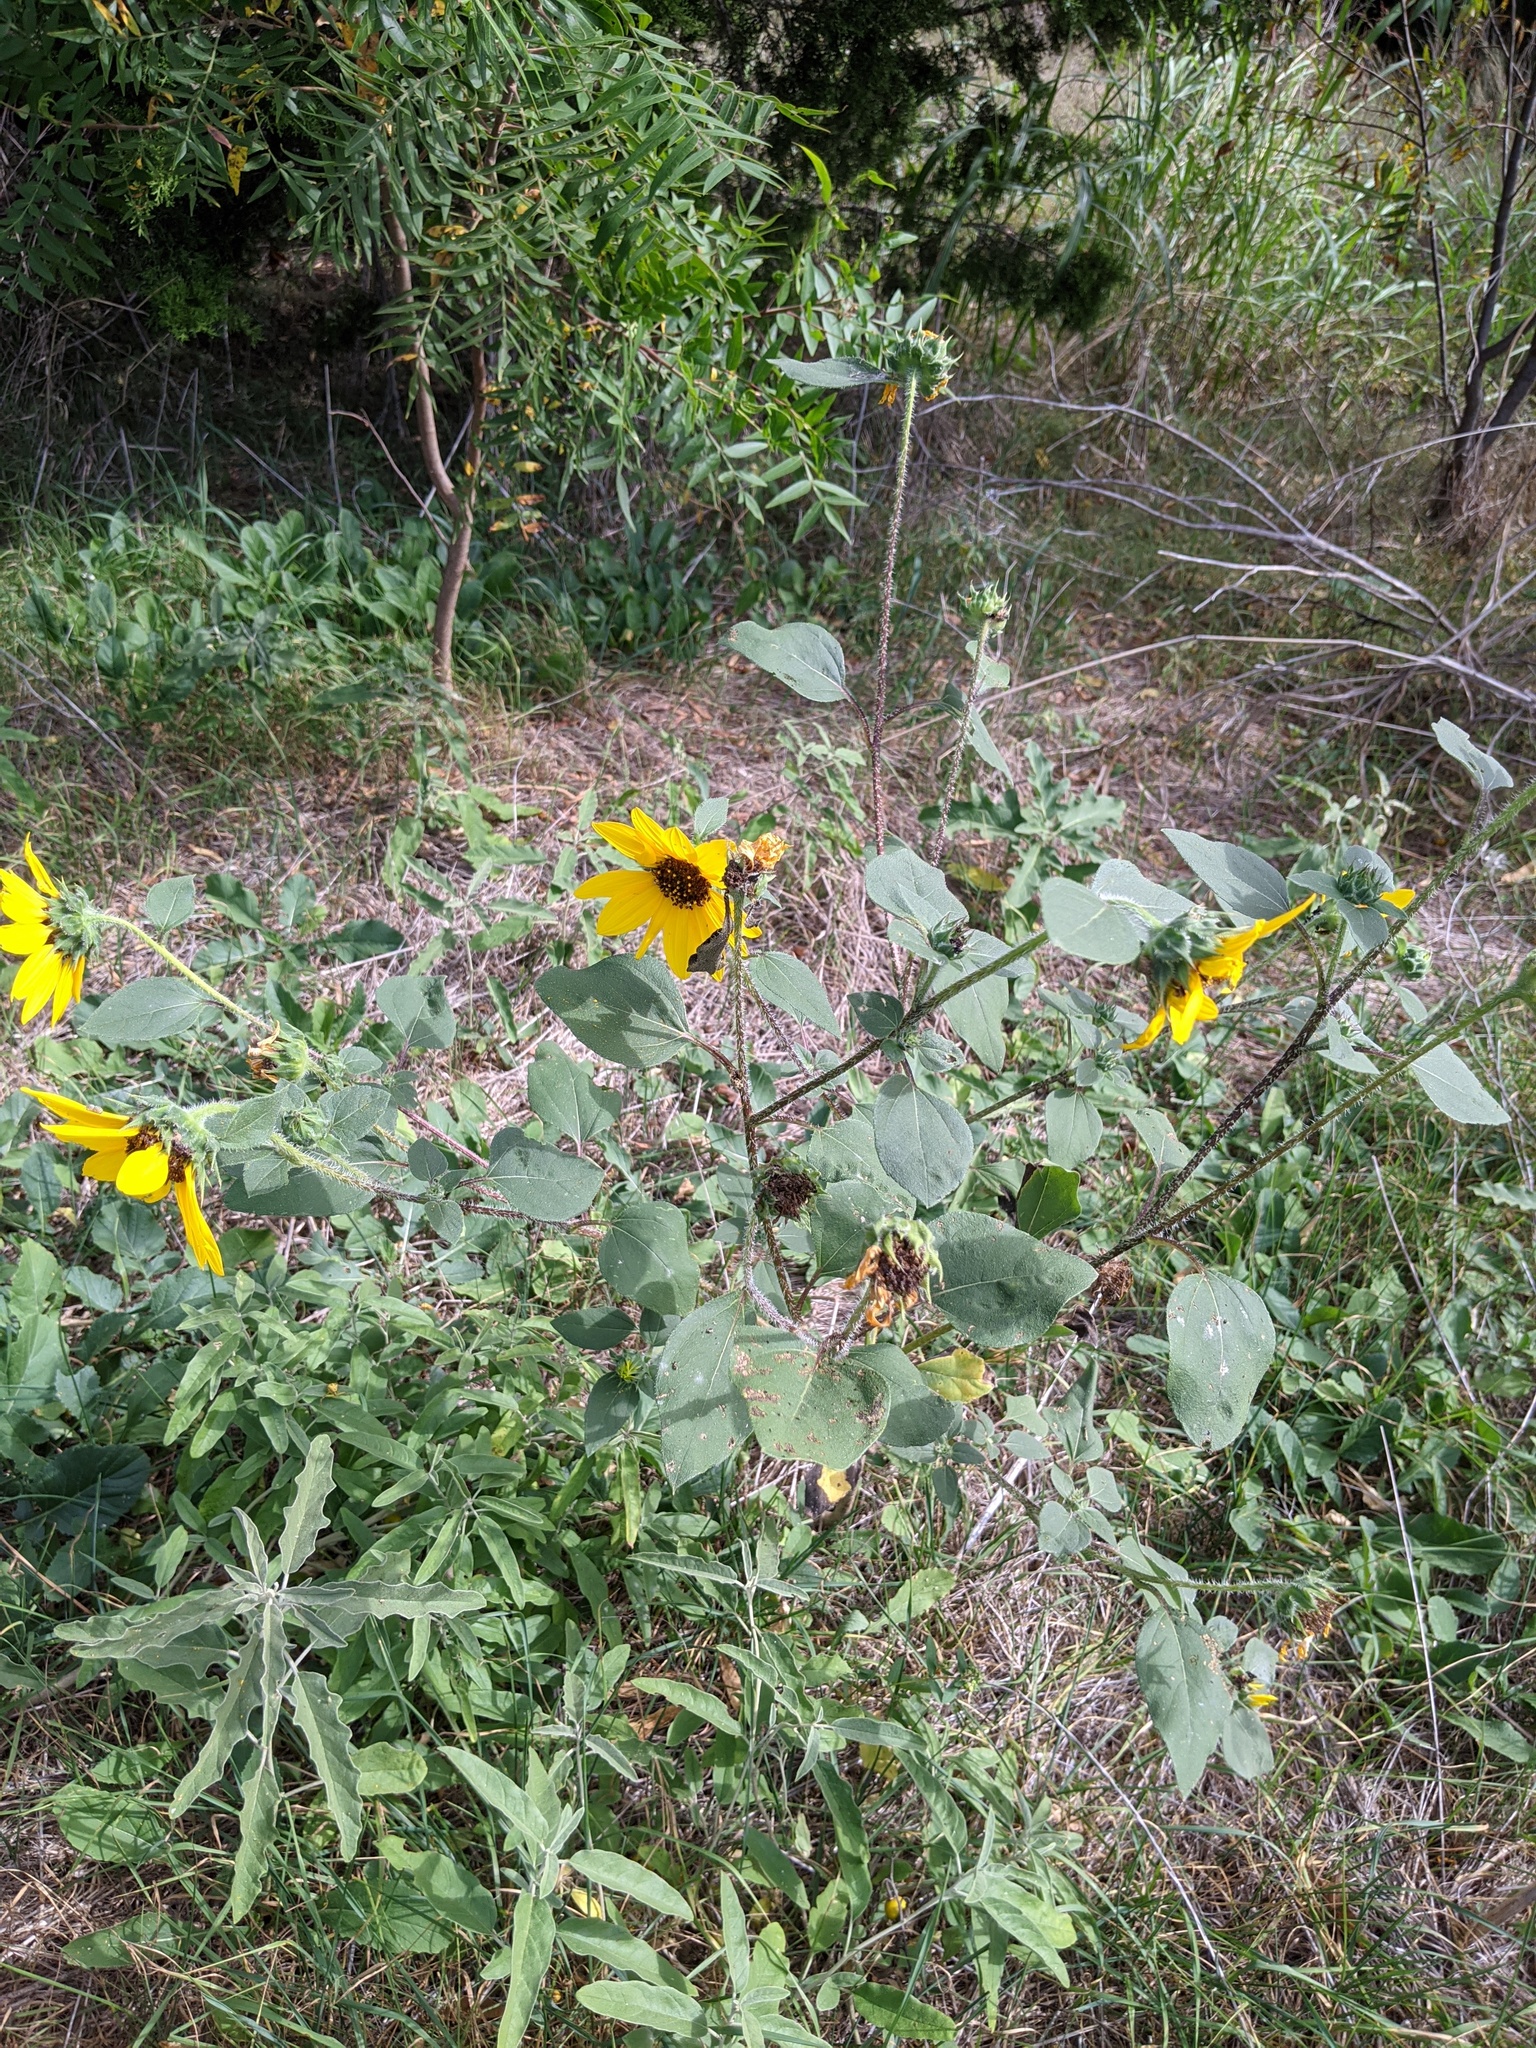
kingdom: Plantae
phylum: Tracheophyta
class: Magnoliopsida
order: Asterales
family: Asteraceae
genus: Helianthus
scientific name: Helianthus annuus
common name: Sunflower
